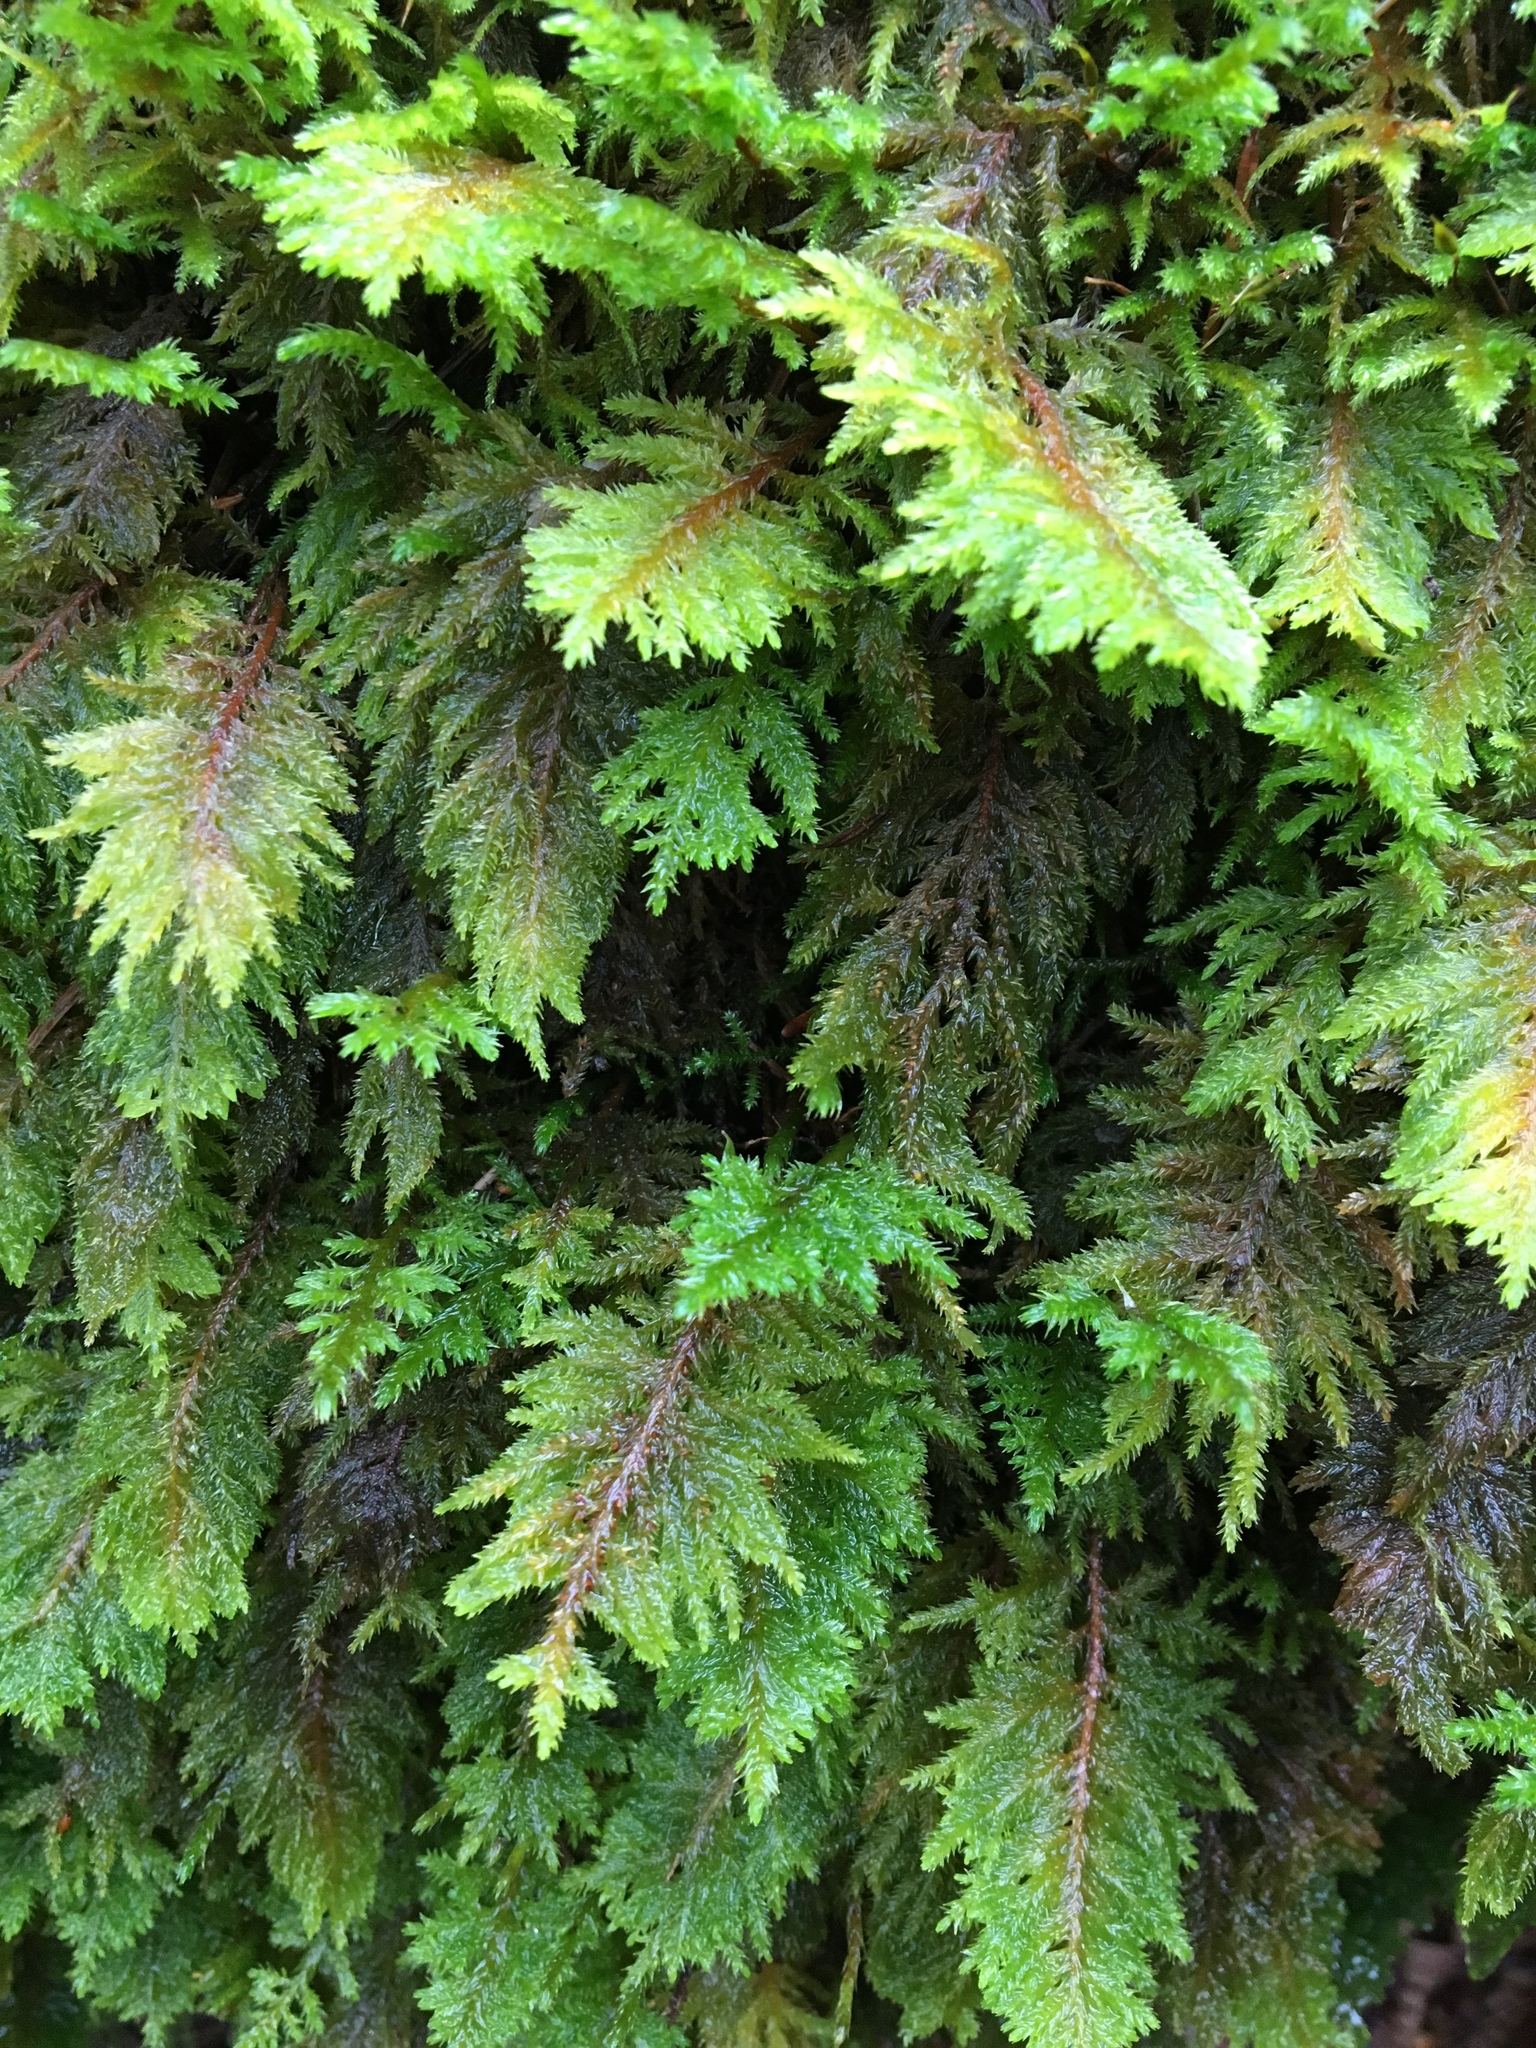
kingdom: Plantae
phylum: Bryophyta
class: Bryopsida
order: Hypnales
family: Cryphaeaceae
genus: Dendroalsia
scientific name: Dendroalsia abietina
